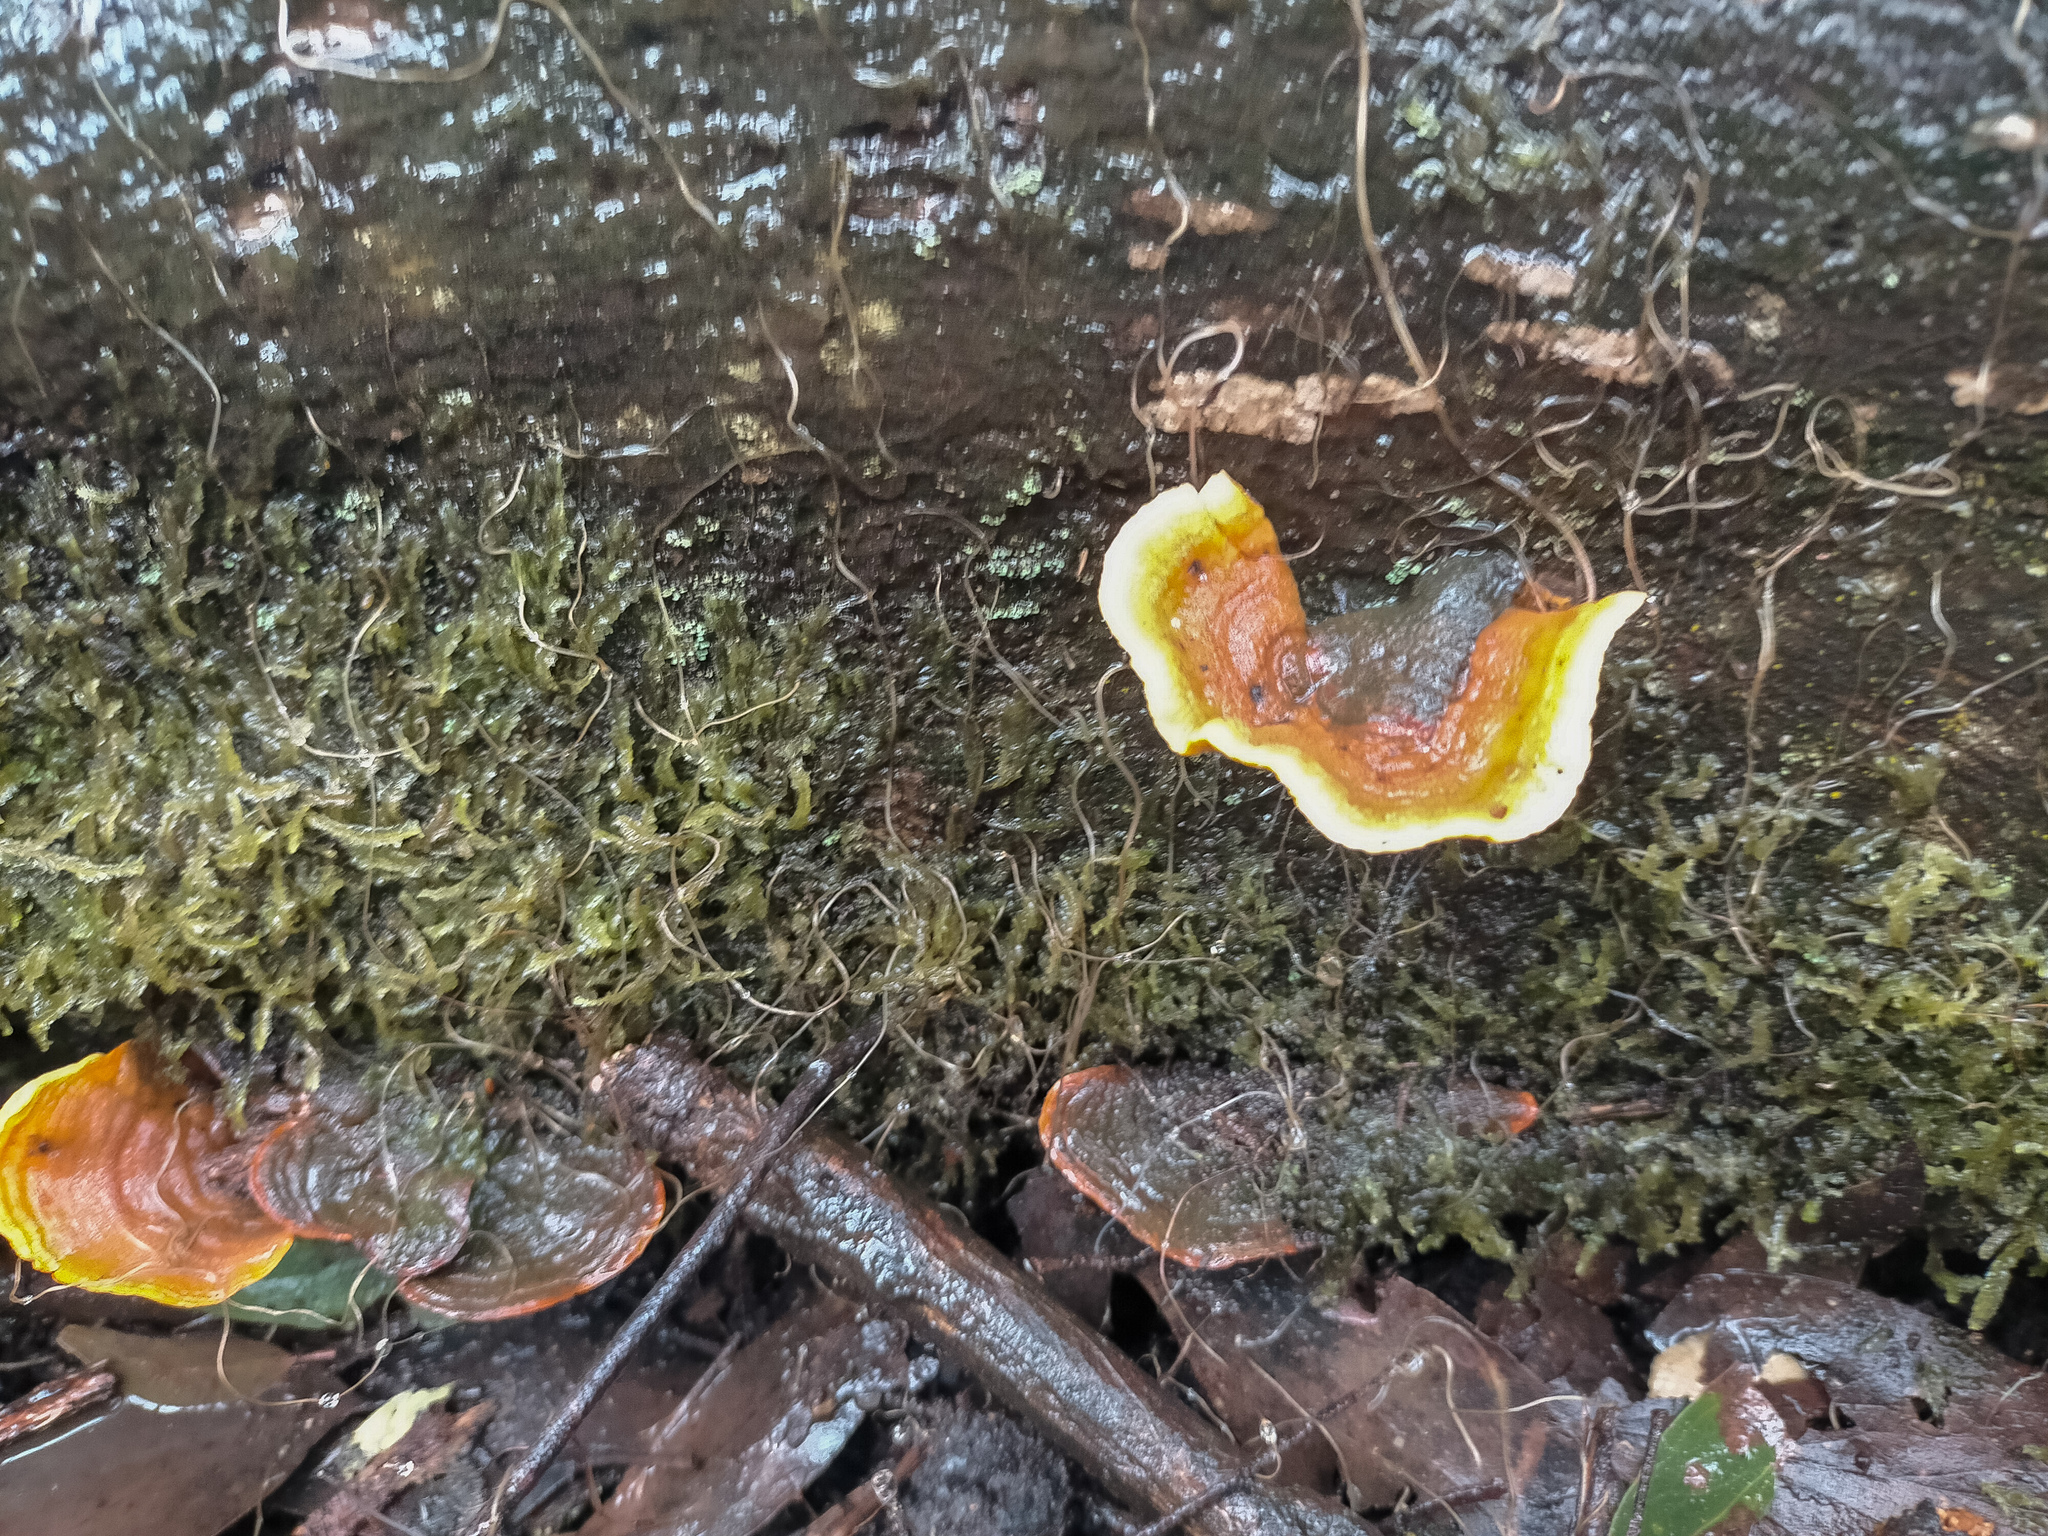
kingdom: Fungi
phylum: Basidiomycota
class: Agaricomycetes
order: Russulales
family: Stereaceae
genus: Stereum
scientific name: Stereum ostrea
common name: False turkeytail
